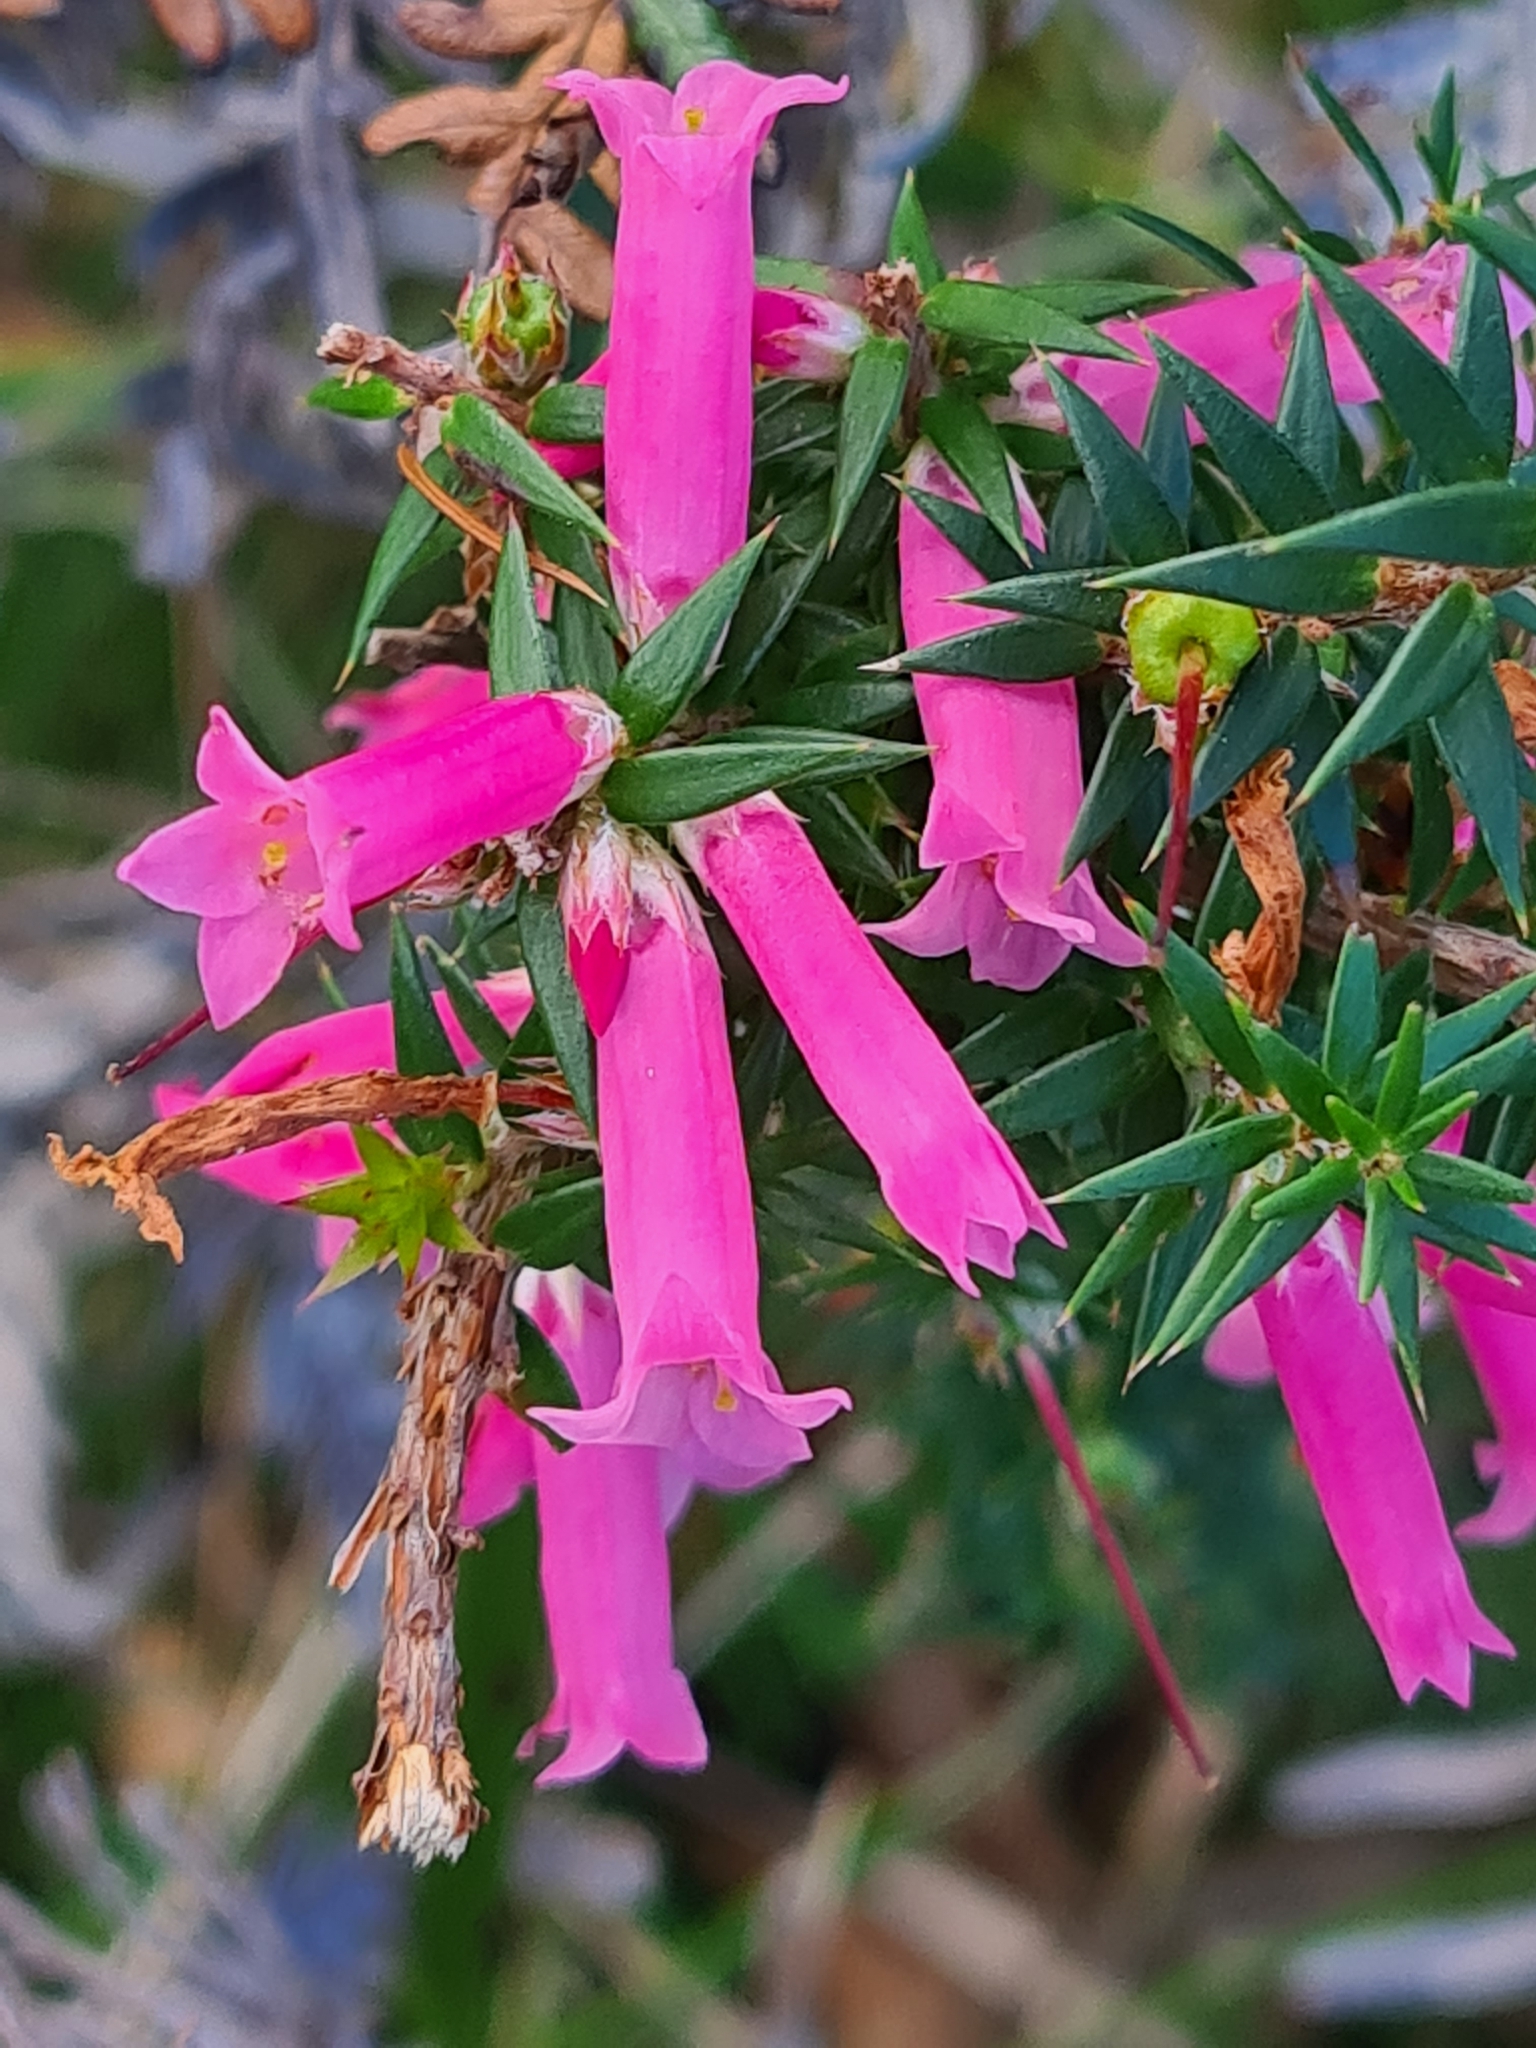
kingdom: Plantae
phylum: Tracheophyta
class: Magnoliopsida
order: Ericales
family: Ericaceae
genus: Epacris
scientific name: Epacris impressa
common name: Common-heath
